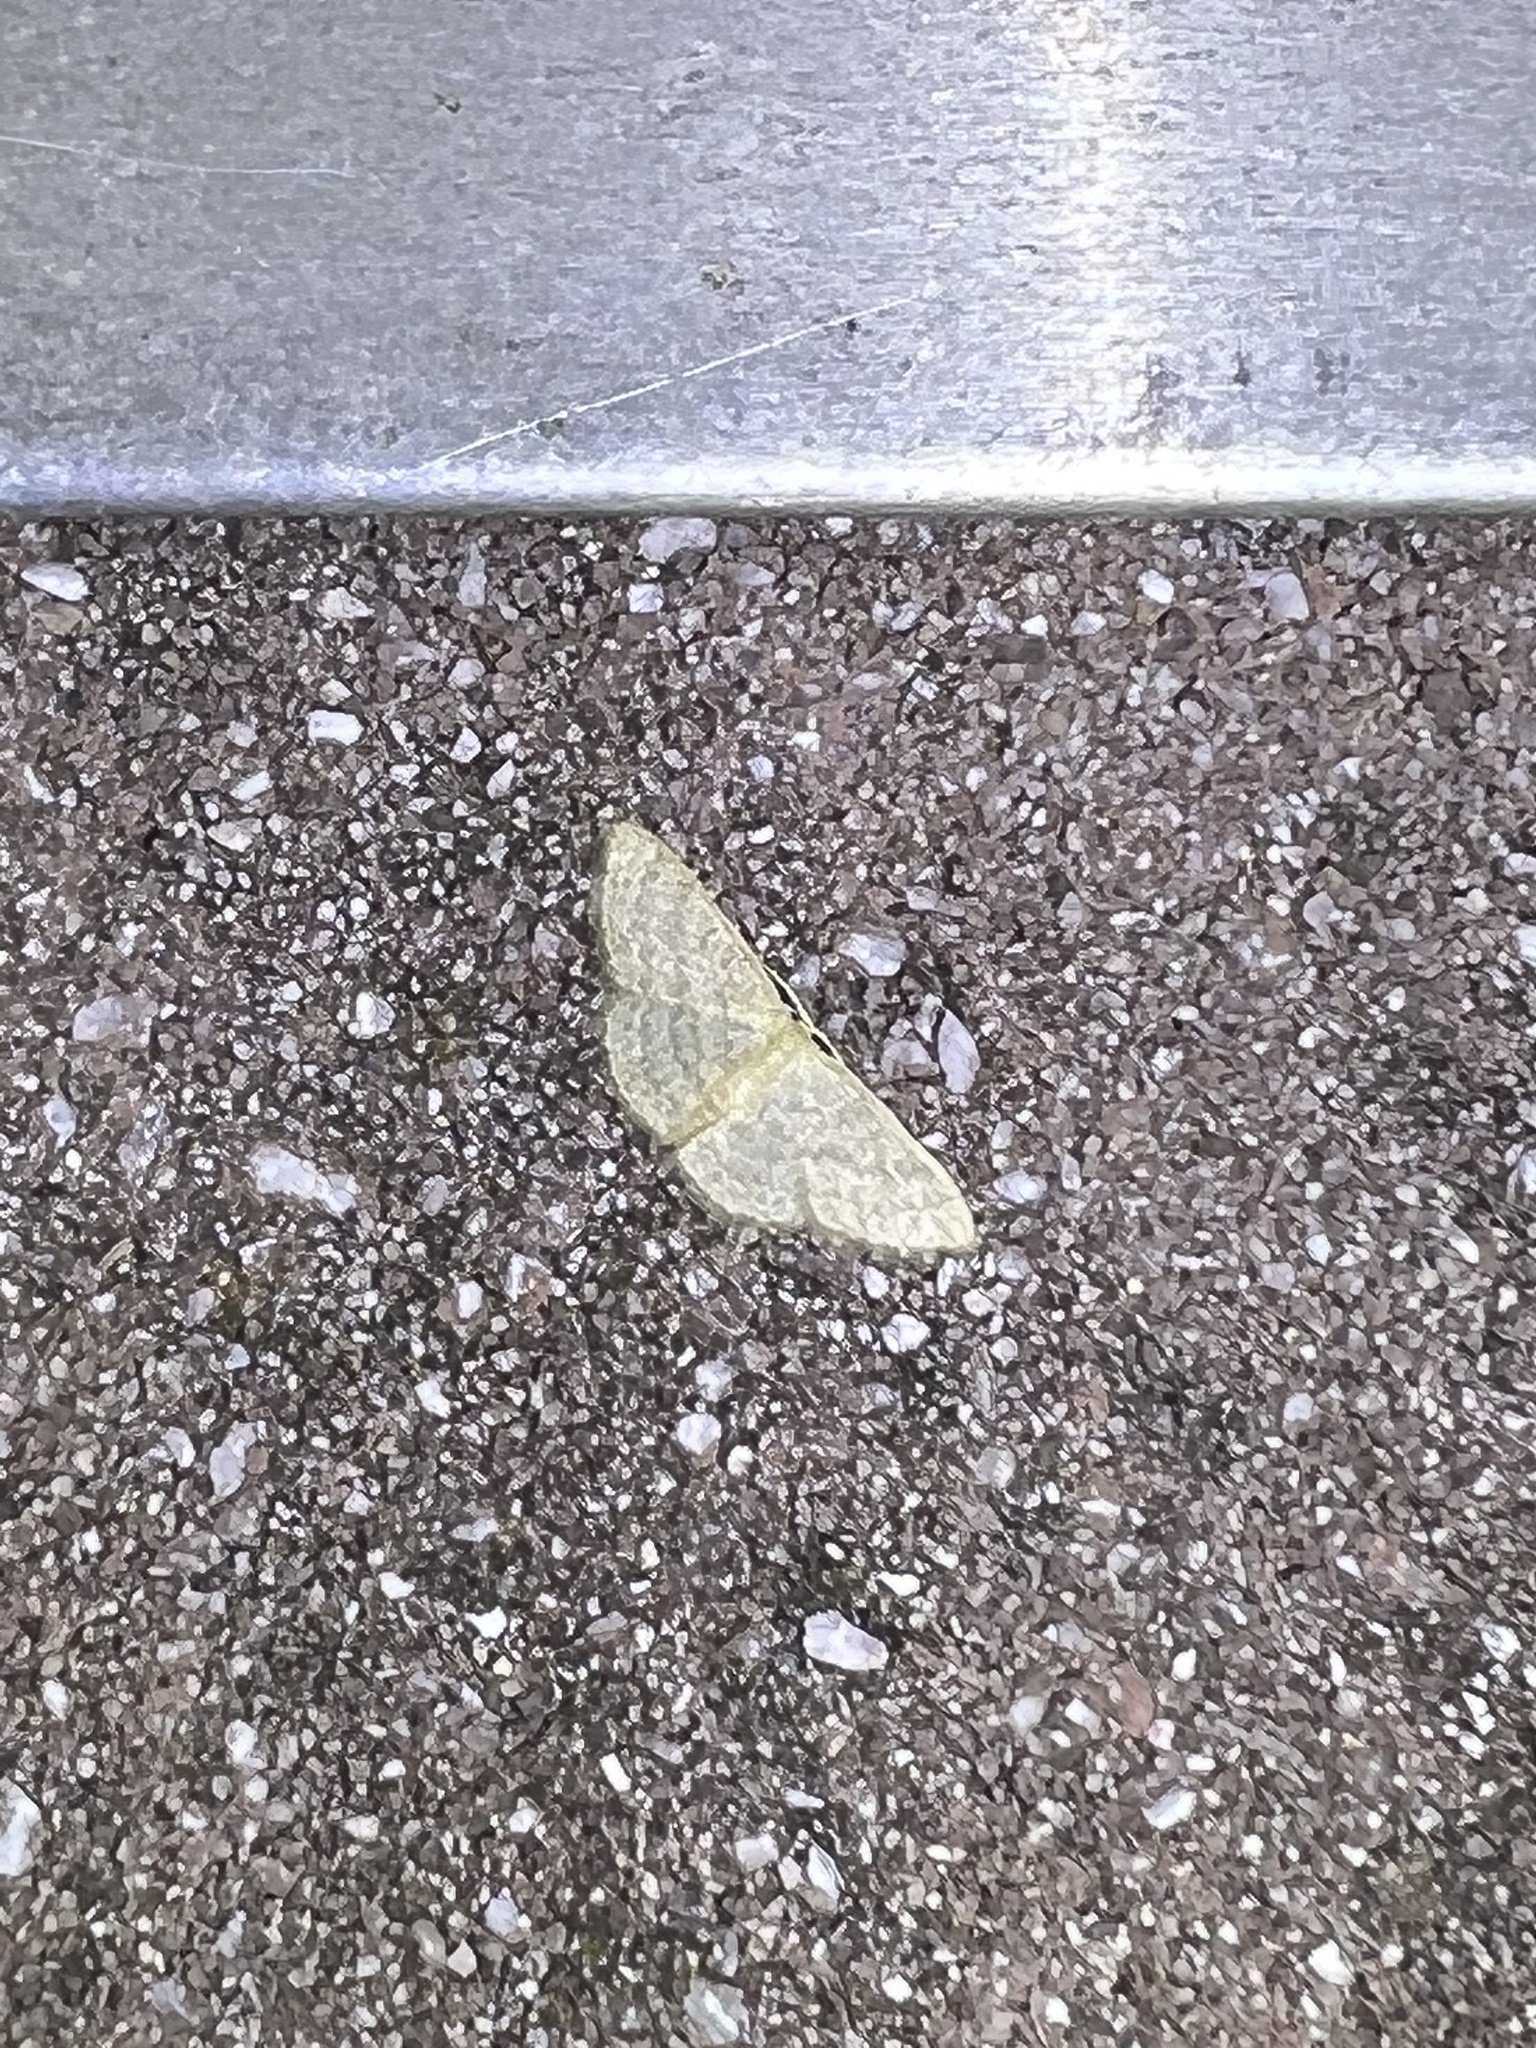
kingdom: Animalia
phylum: Arthropoda
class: Insecta
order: Lepidoptera
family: Geometridae
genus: Pleuroprucha
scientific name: Pleuroprucha insulsaria
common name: Common tan wave
